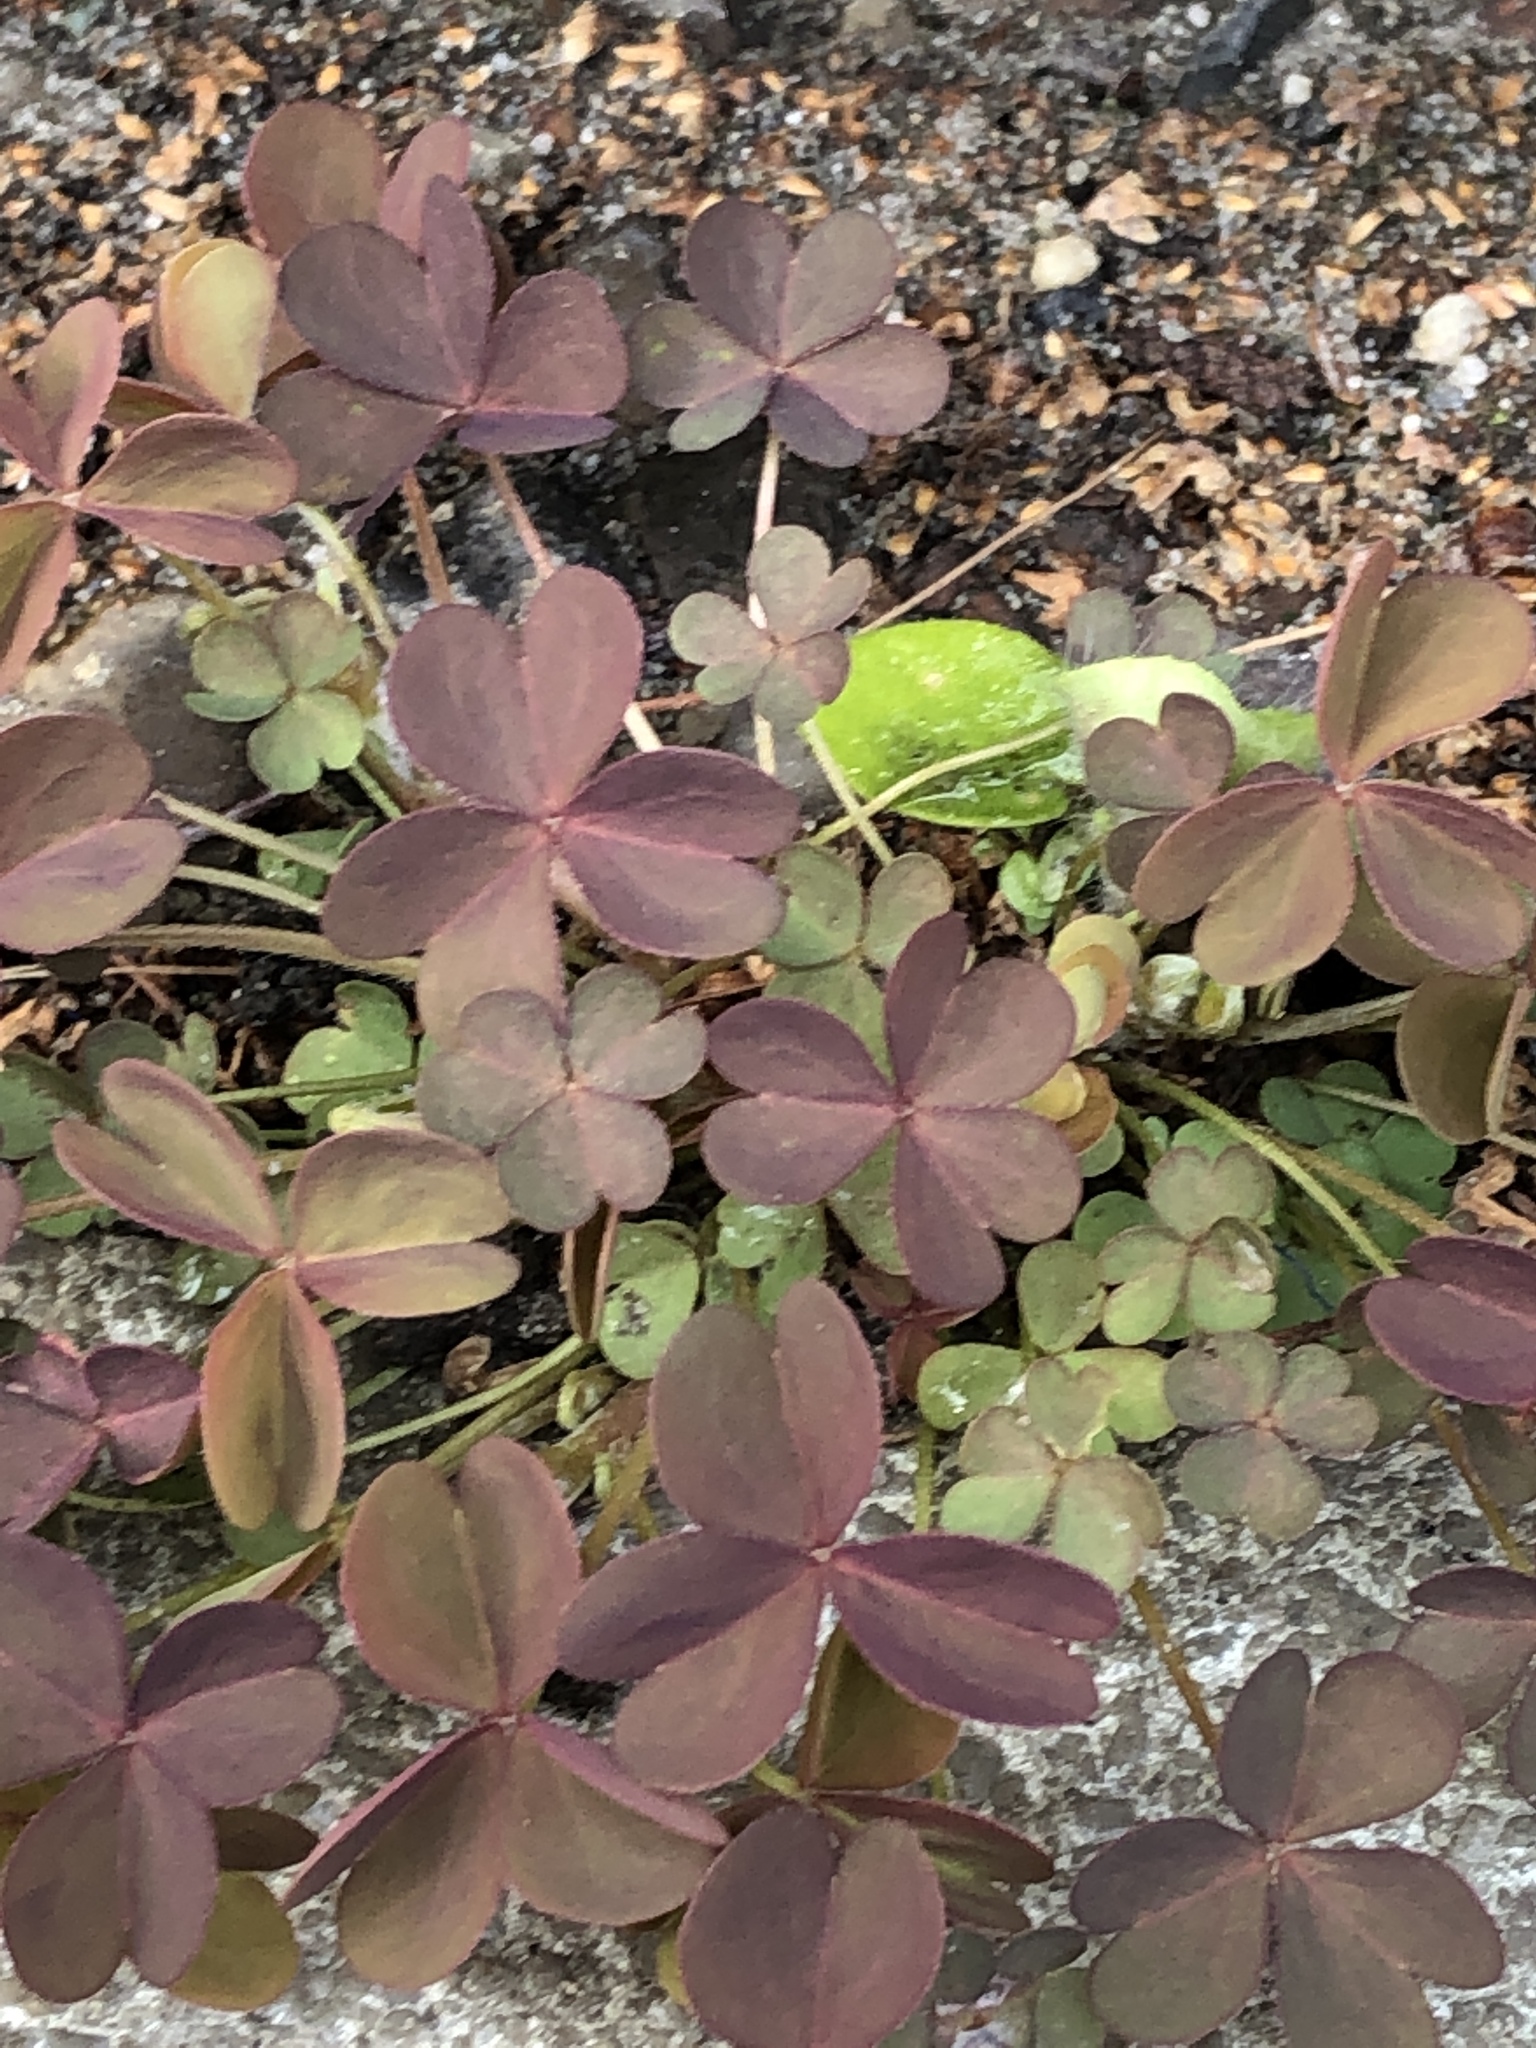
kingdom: Plantae
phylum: Tracheophyta
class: Magnoliopsida
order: Oxalidales
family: Oxalidaceae
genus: Oxalis
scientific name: Oxalis corniculata
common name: Procumbent yellow-sorrel
